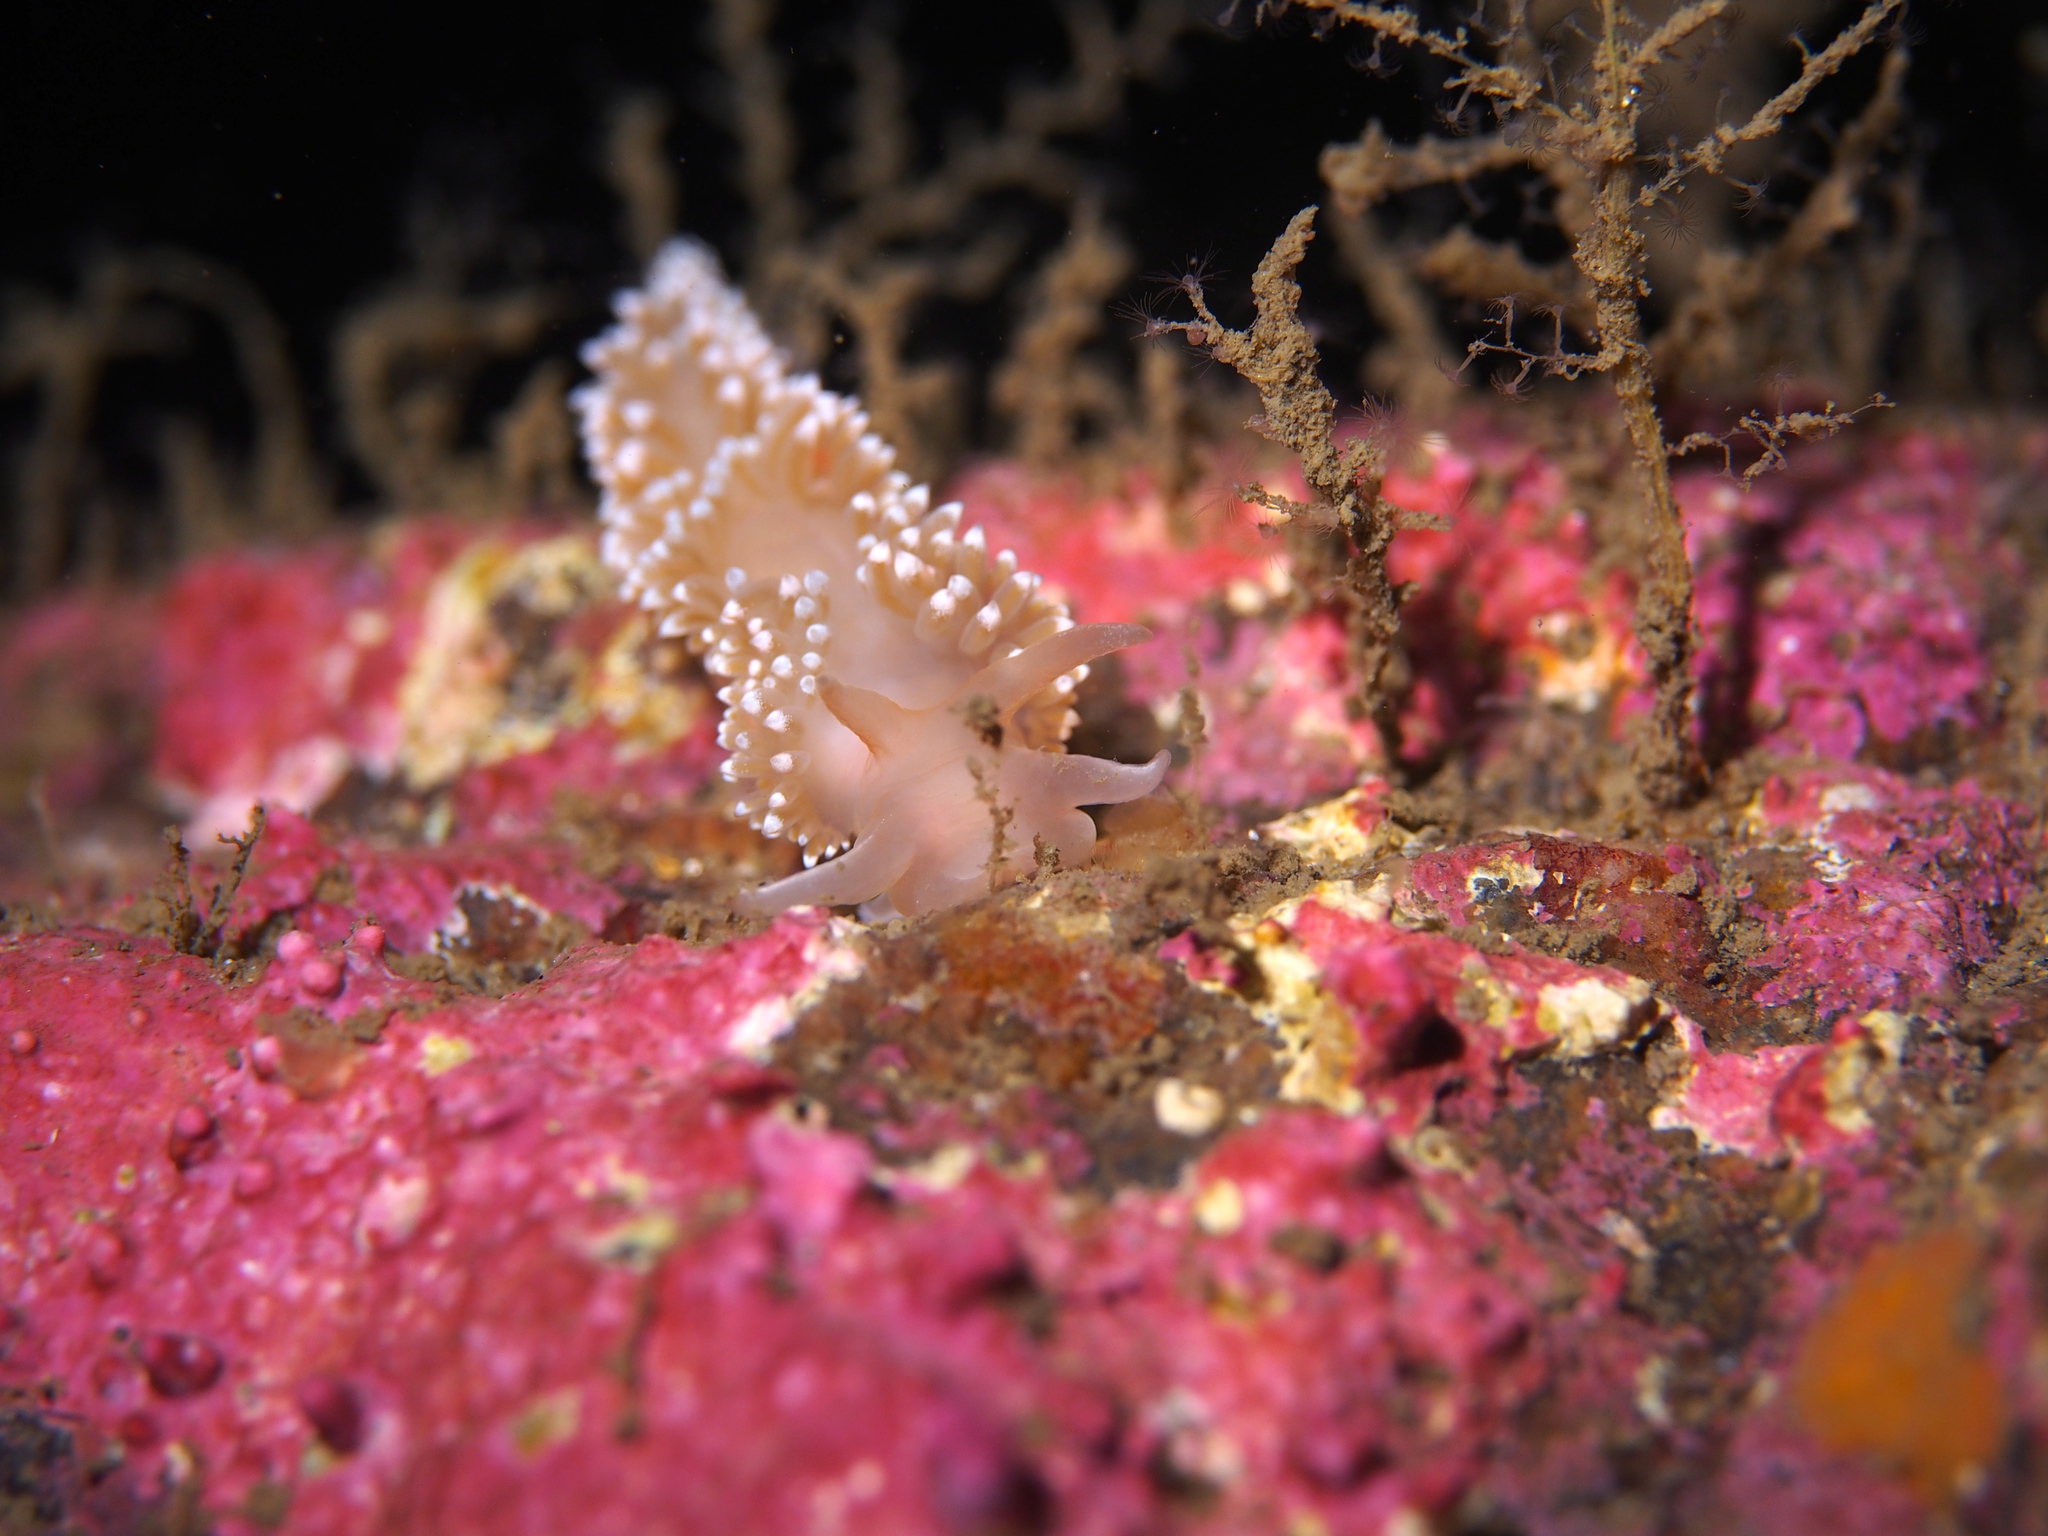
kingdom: Animalia
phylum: Mollusca
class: Gastropoda
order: Nudibranchia
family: Coryphellidae
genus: Coryphella
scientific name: Coryphella verrucosa
